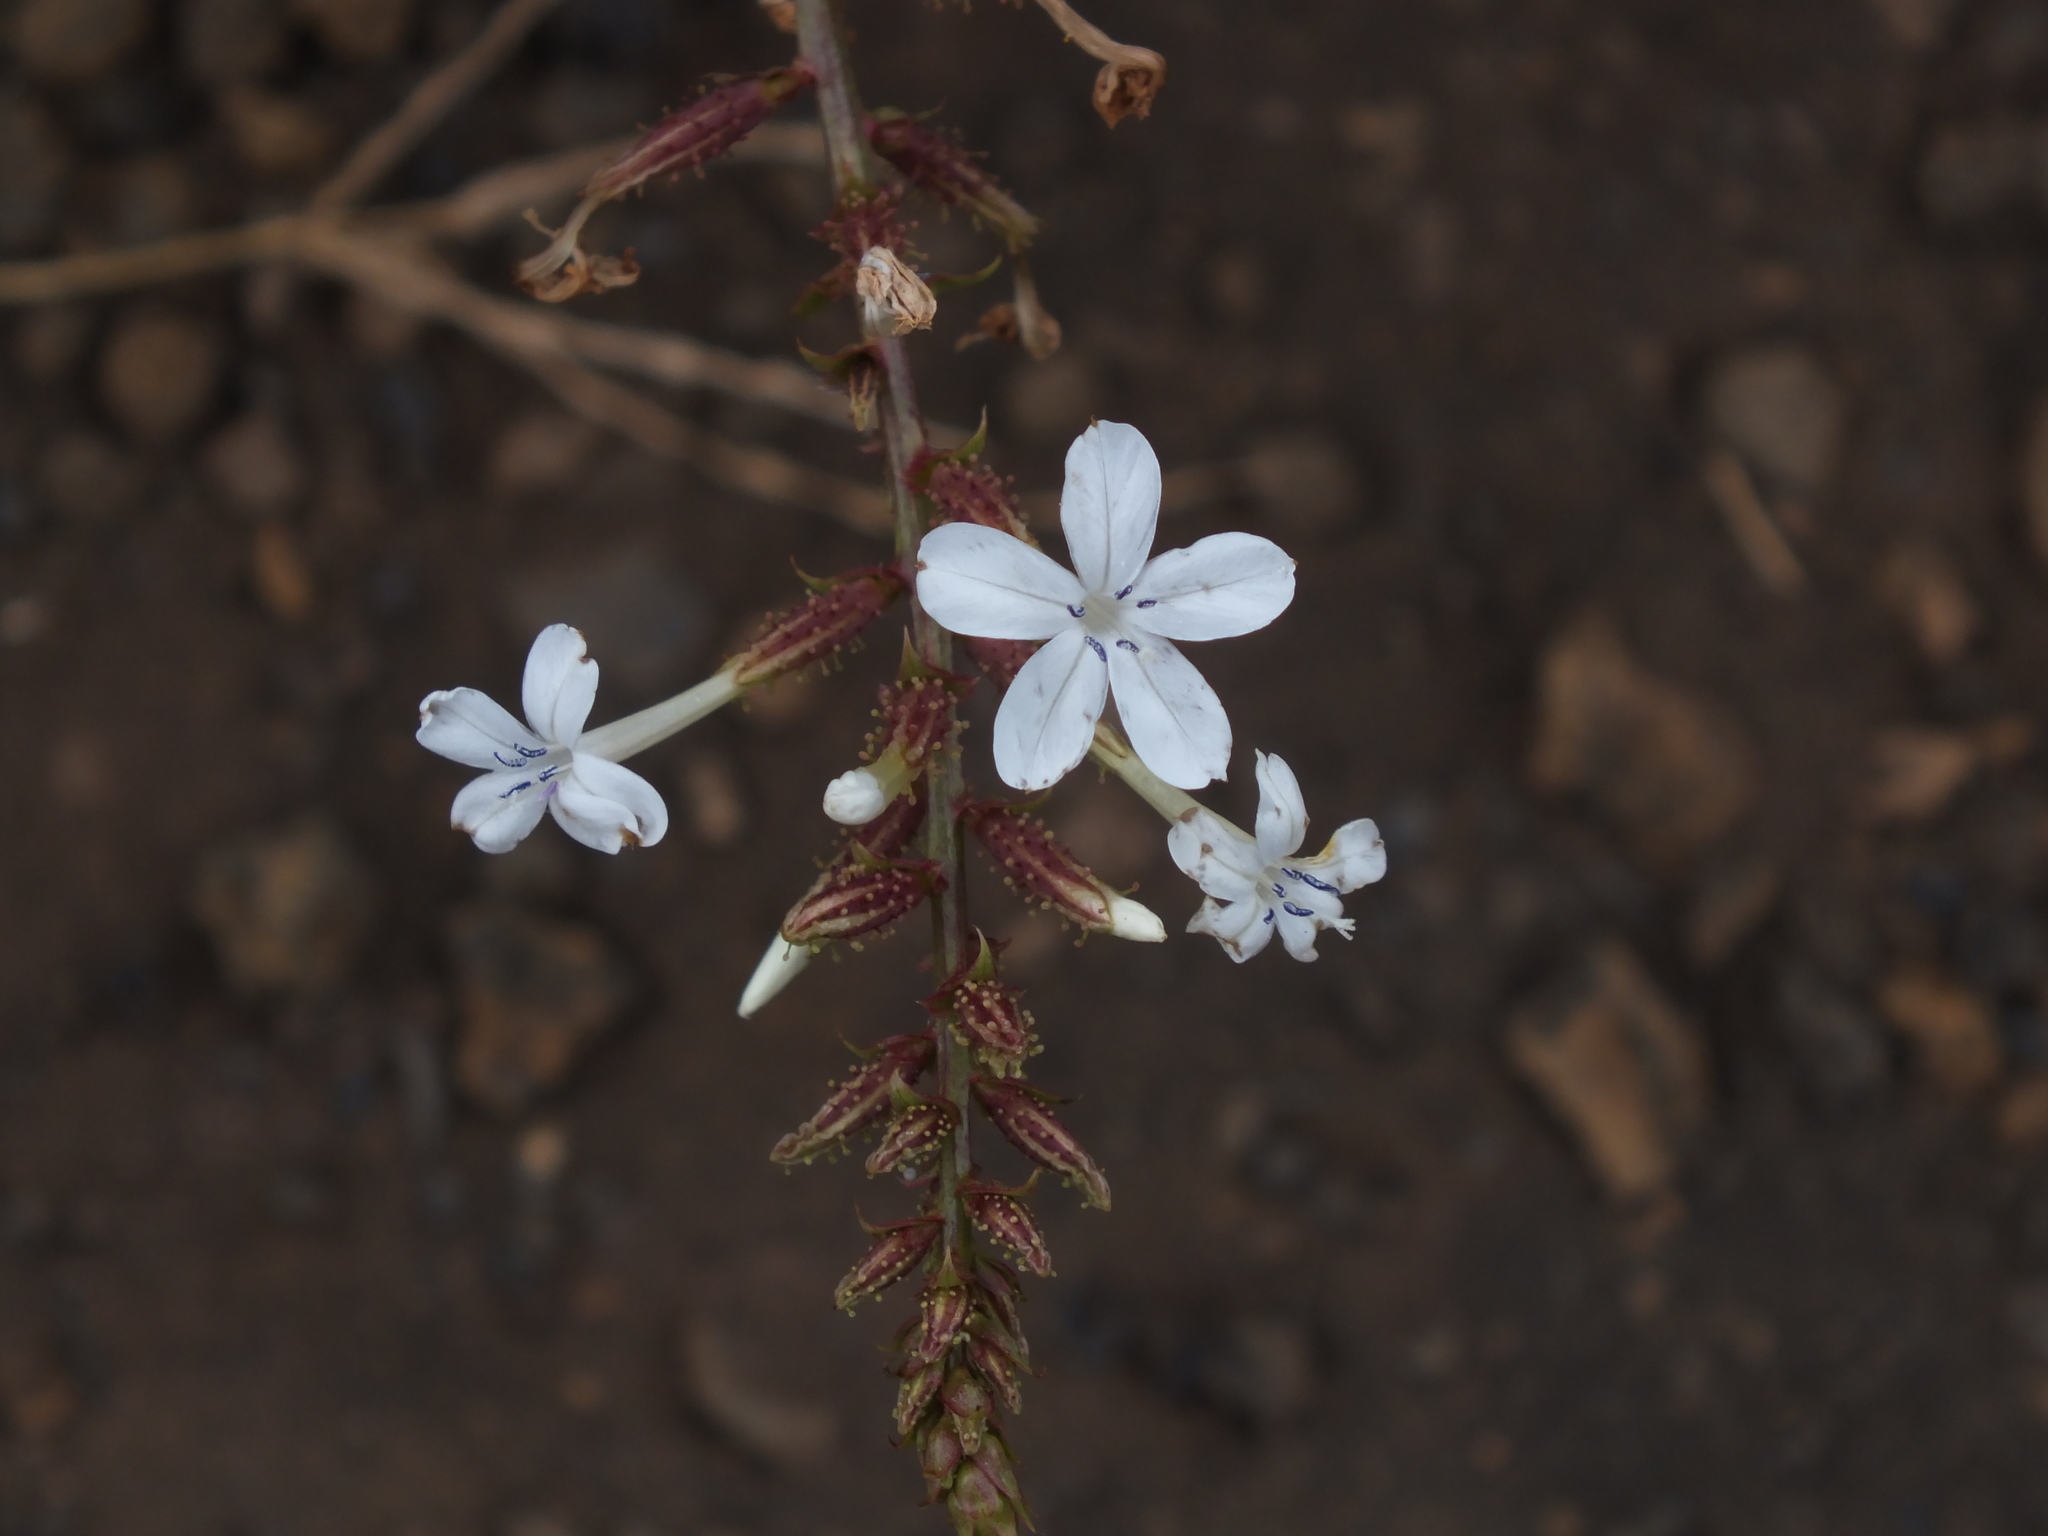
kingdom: Plantae
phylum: Tracheophyta
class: Magnoliopsida
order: Caryophyllales
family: Plumbaginaceae
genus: Plumbago
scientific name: Plumbago zeylanica
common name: Doctorbush
